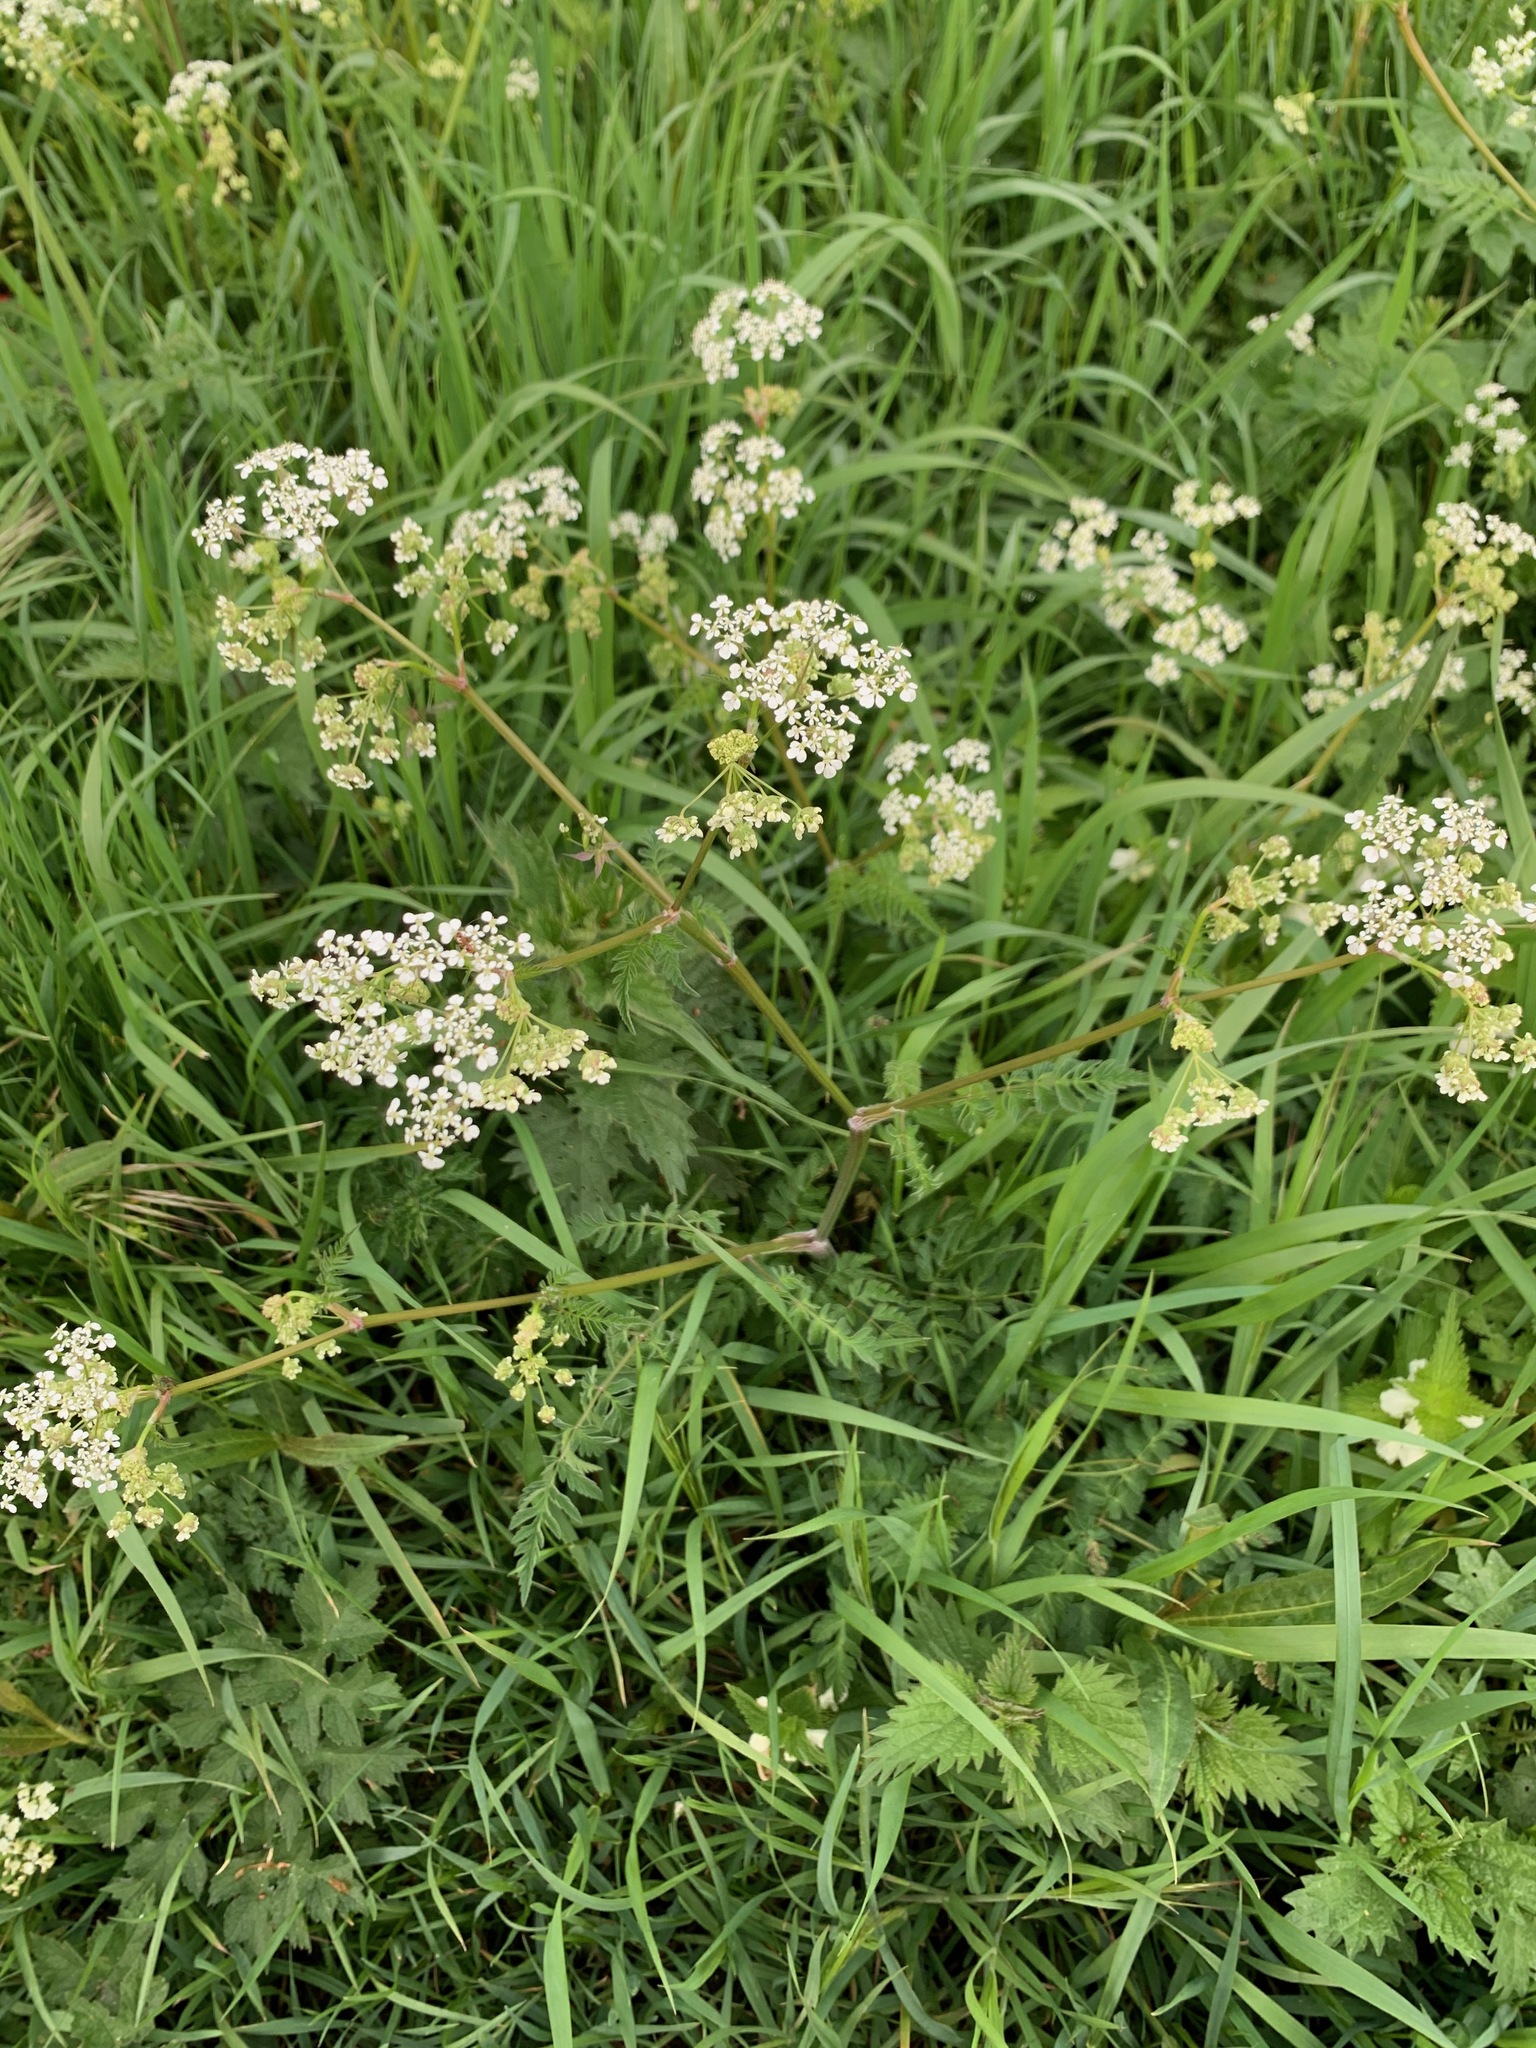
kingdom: Plantae
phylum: Tracheophyta
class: Magnoliopsida
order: Apiales
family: Apiaceae
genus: Anthriscus
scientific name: Anthriscus sylvestris
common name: Cow parsley
